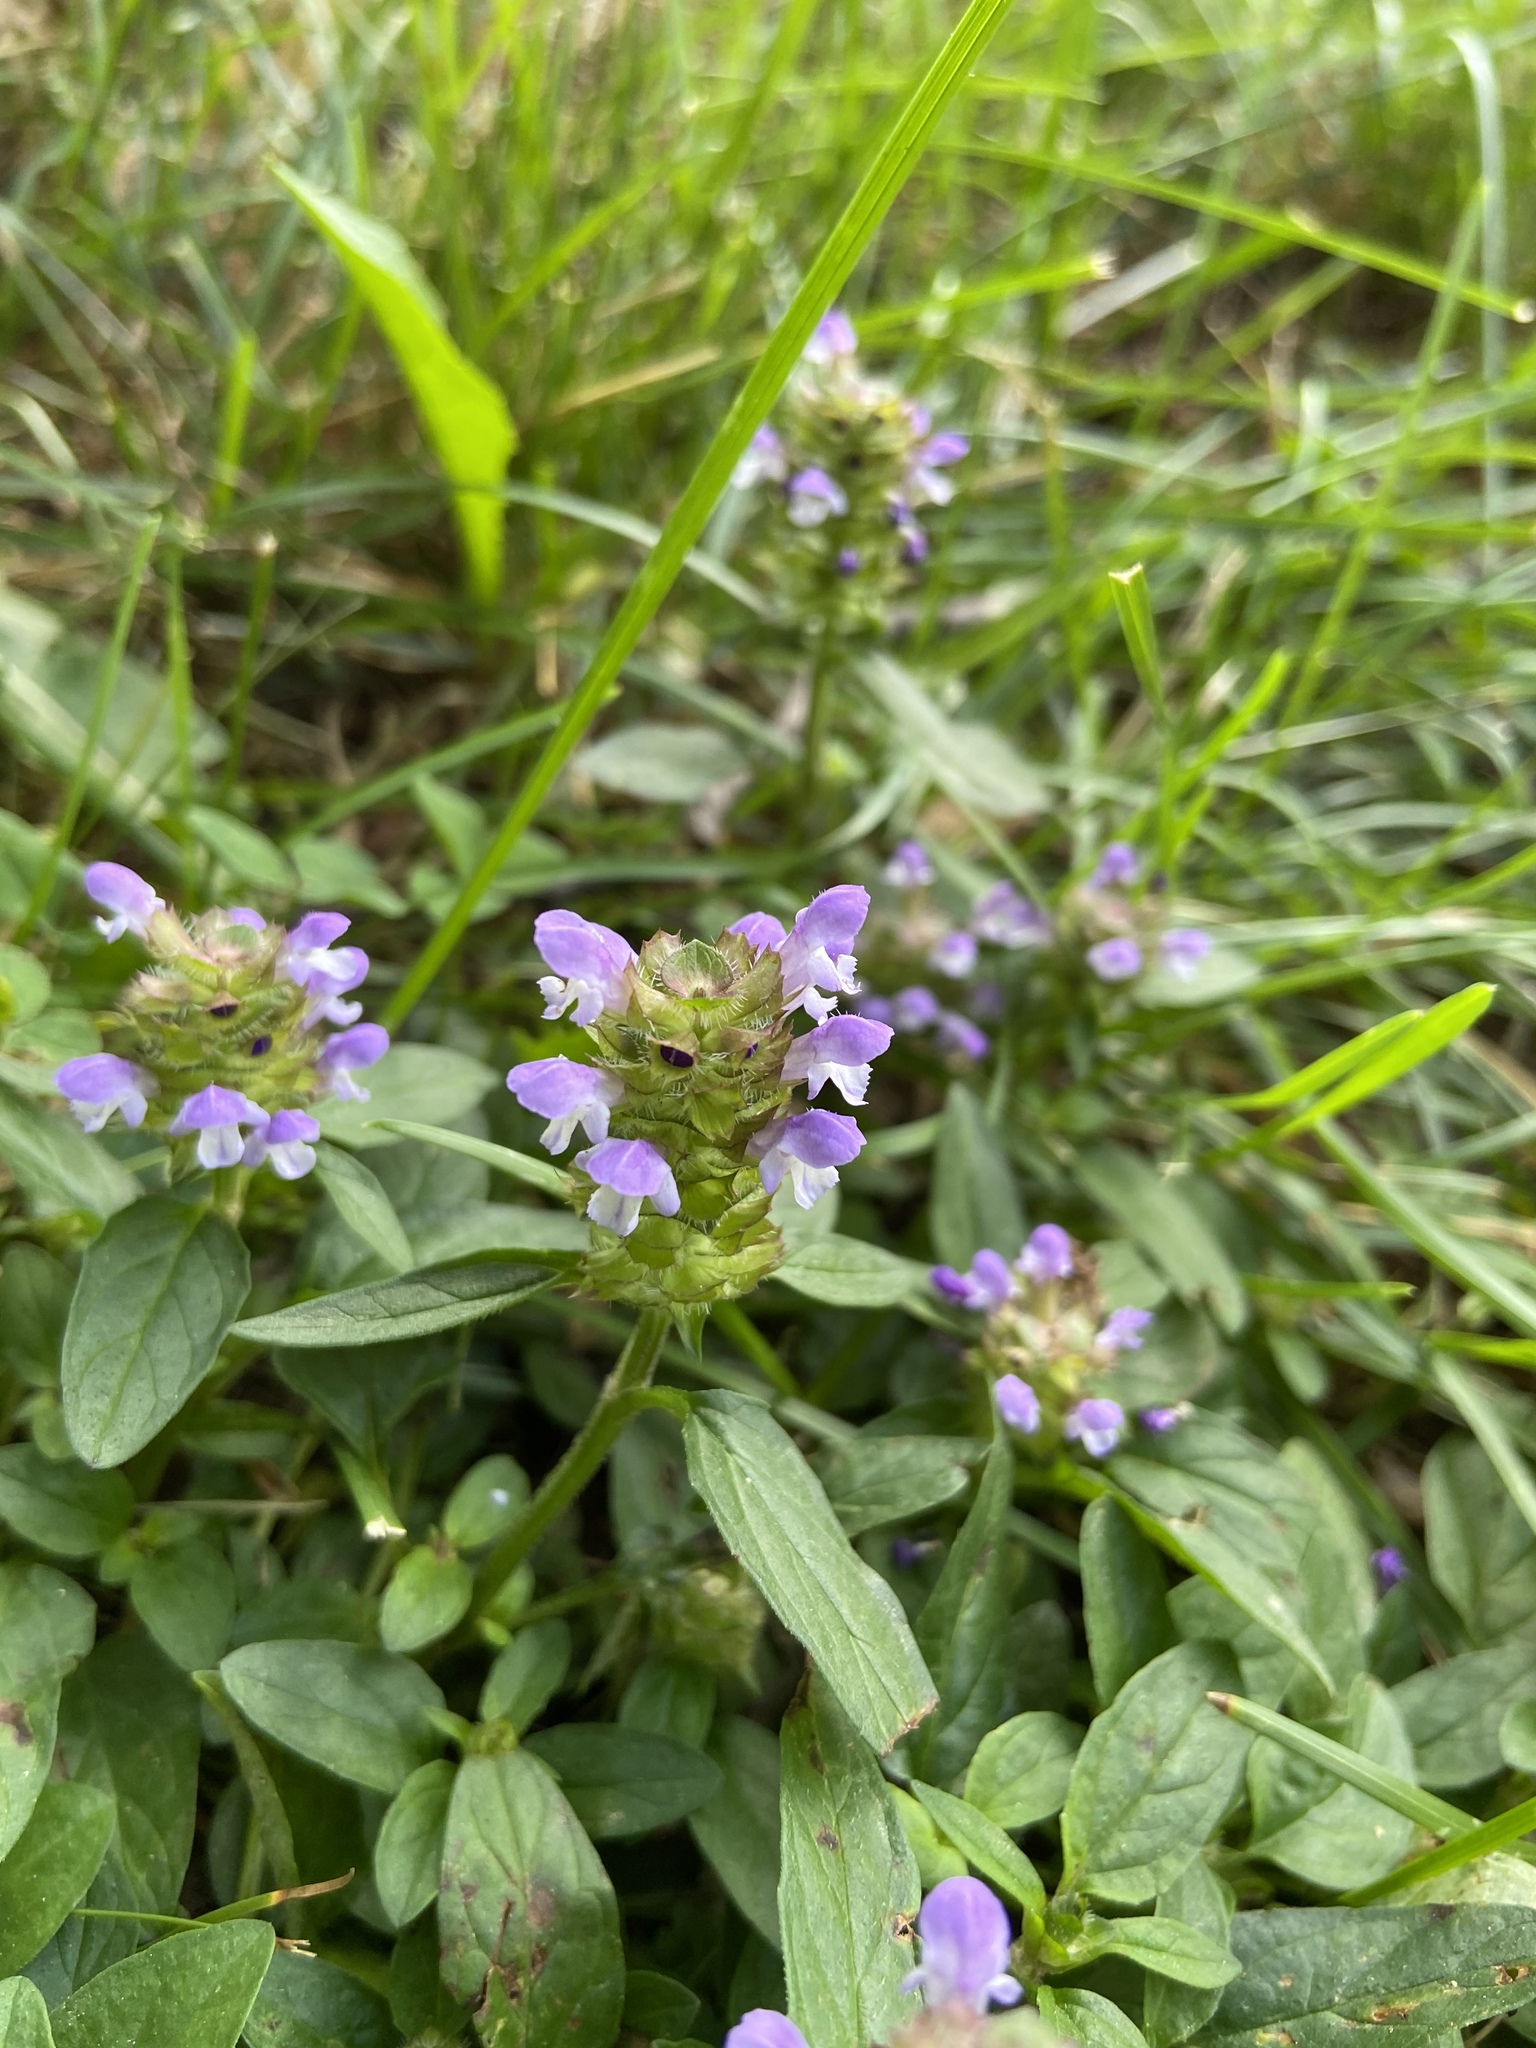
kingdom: Plantae
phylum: Tracheophyta
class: Magnoliopsida
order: Lamiales
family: Lamiaceae
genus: Prunella
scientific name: Prunella vulgaris
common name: Heal-all
